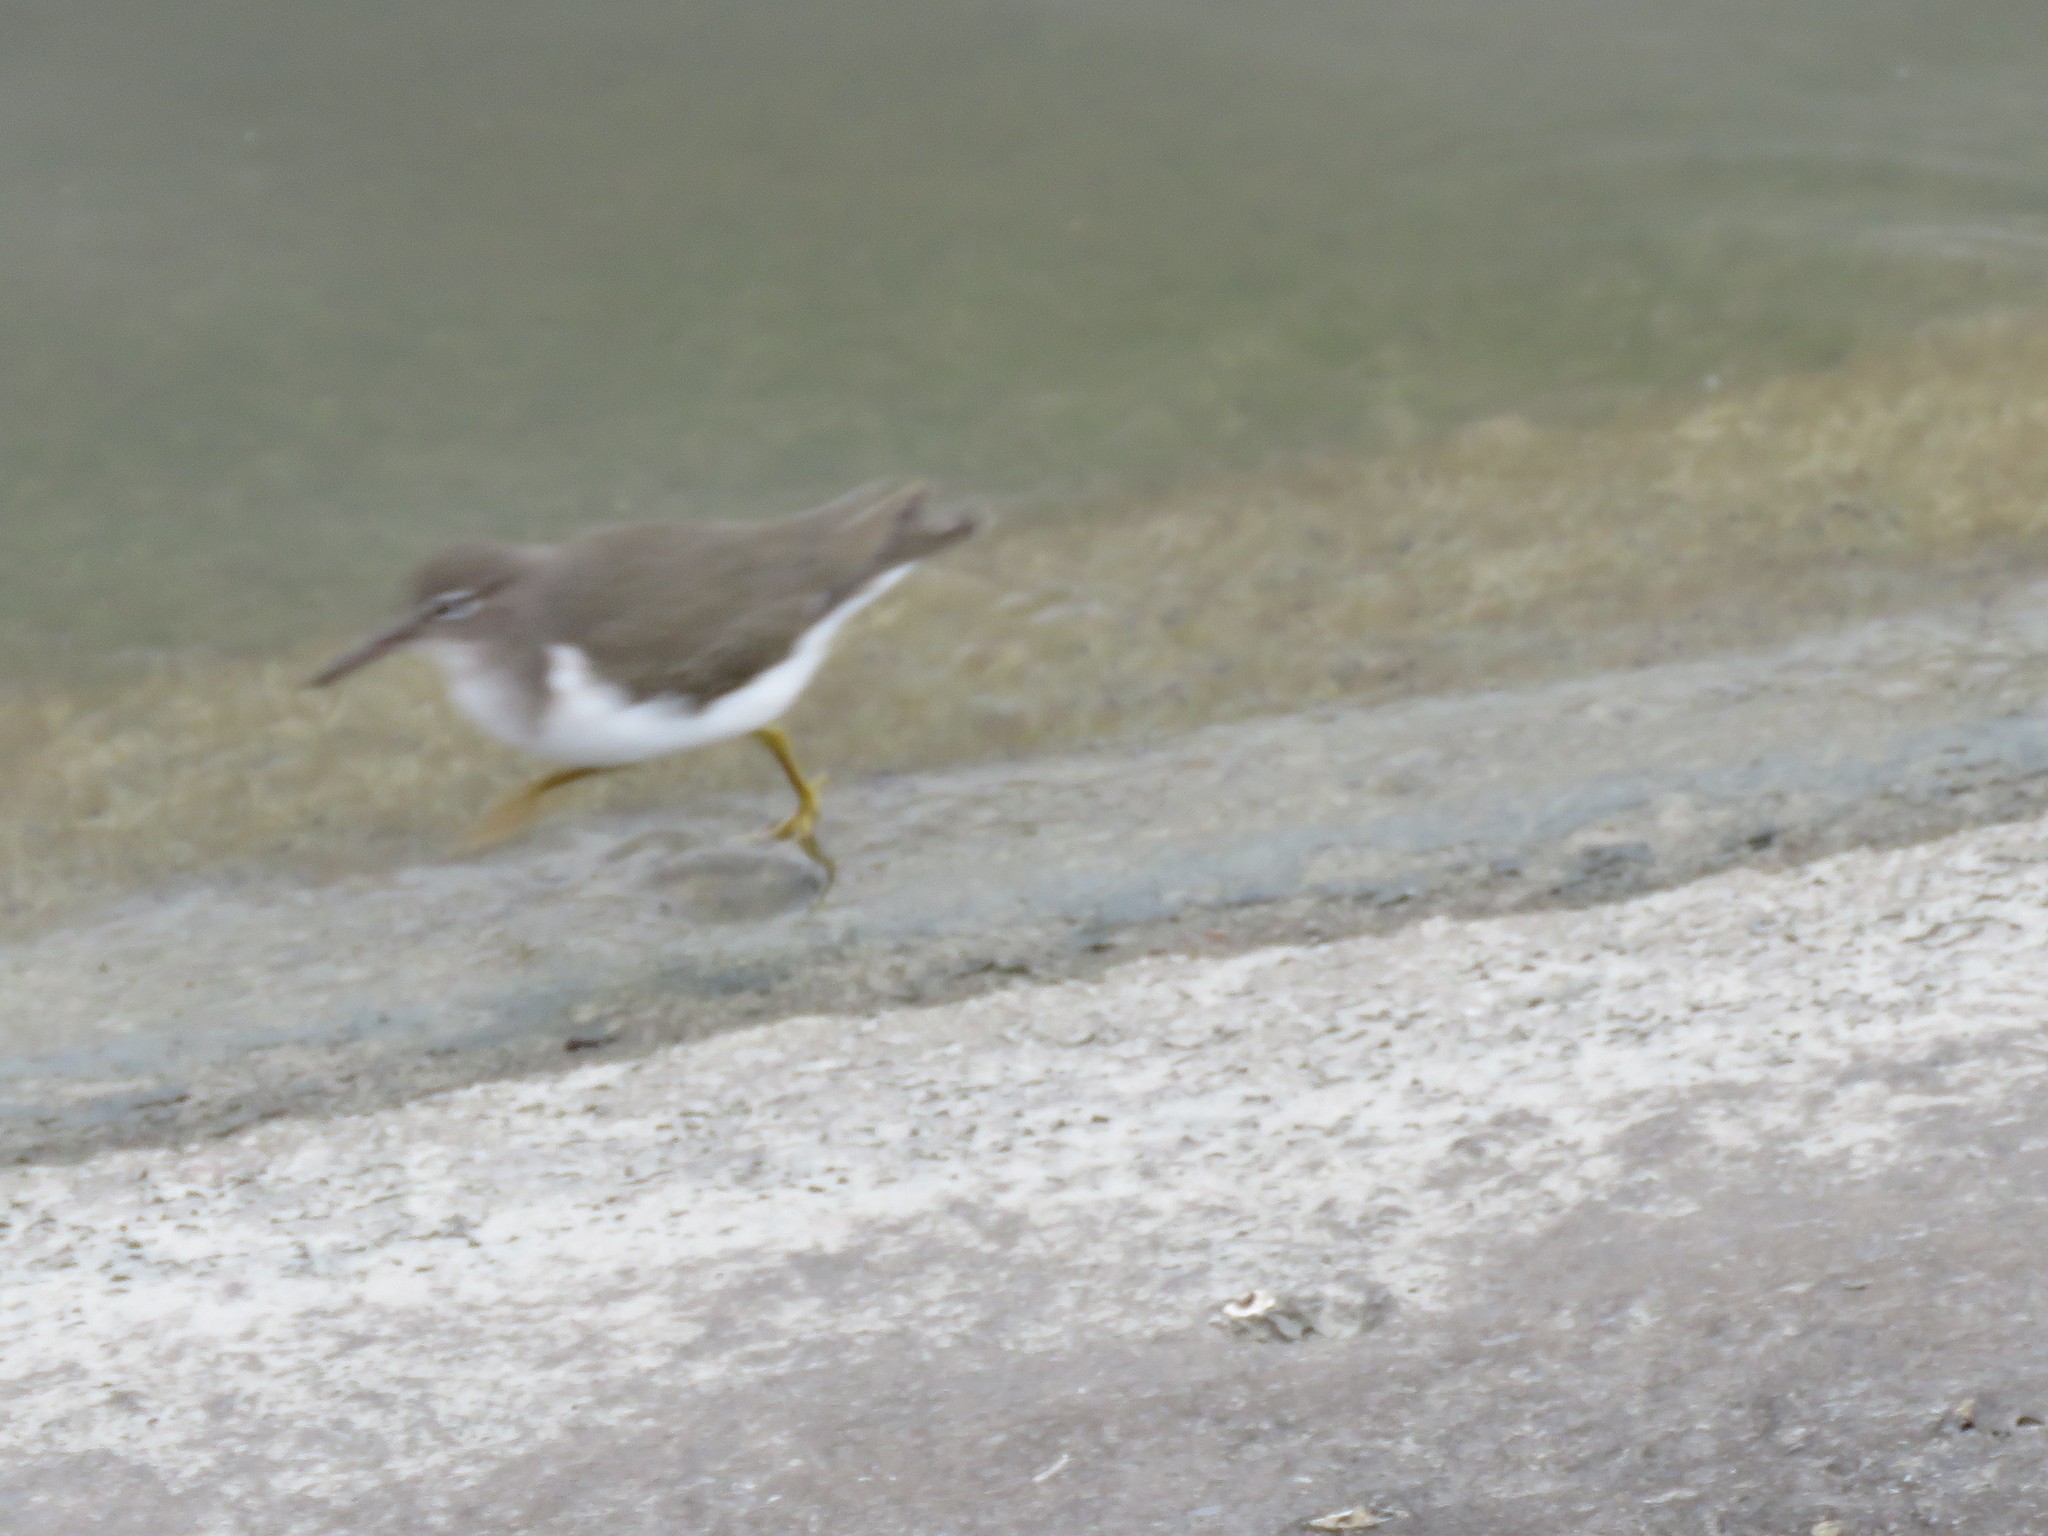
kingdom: Animalia
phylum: Chordata
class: Aves
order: Charadriiformes
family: Scolopacidae
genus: Actitis
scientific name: Actitis macularius
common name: Spotted sandpiper
